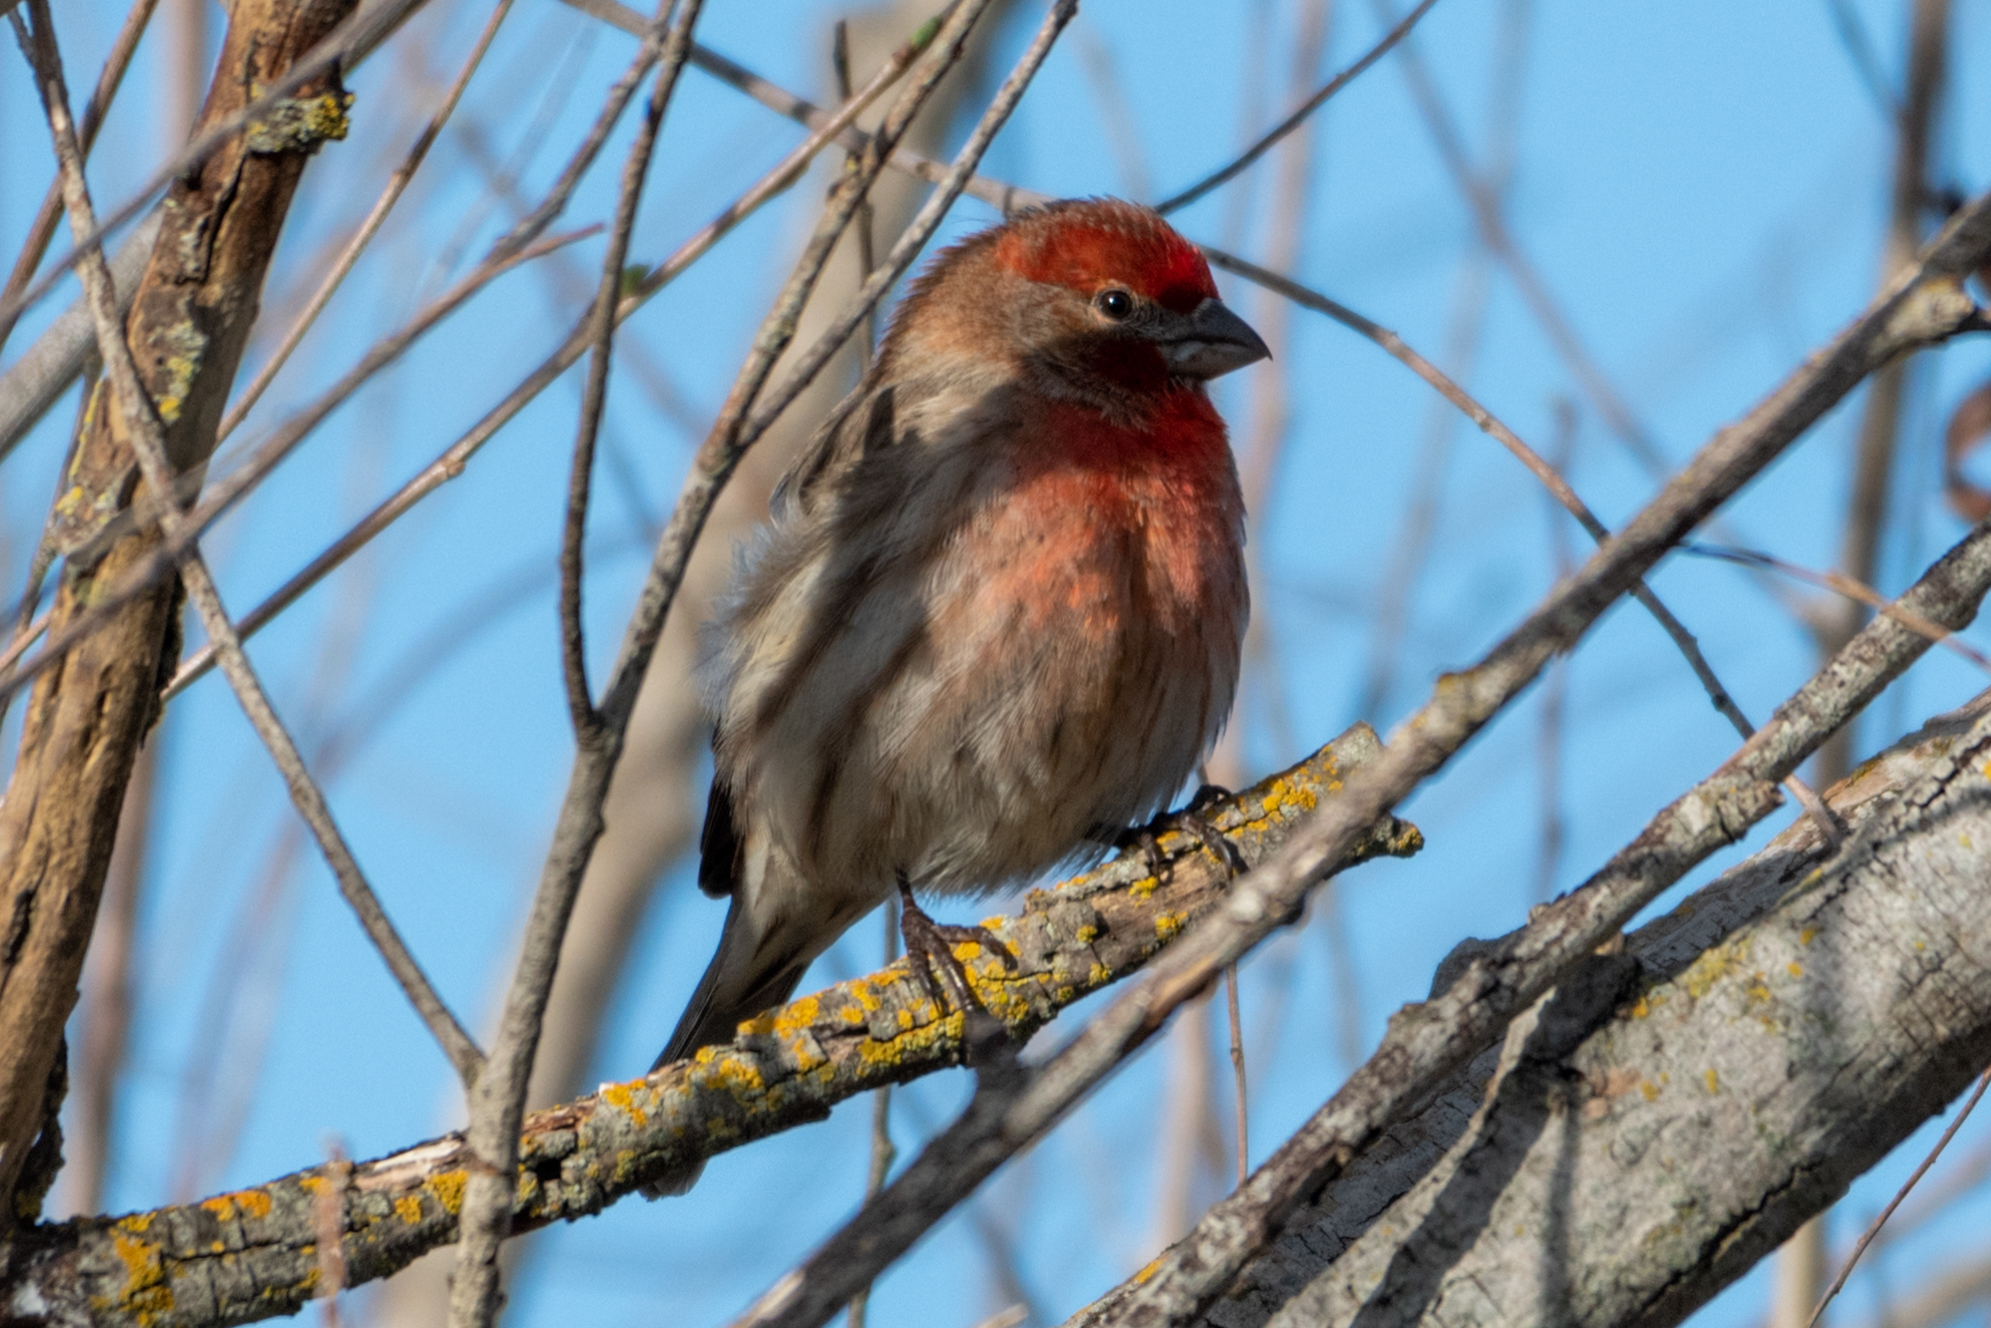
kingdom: Animalia
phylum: Chordata
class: Aves
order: Passeriformes
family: Fringillidae
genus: Haemorhous
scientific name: Haemorhous mexicanus
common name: House finch
